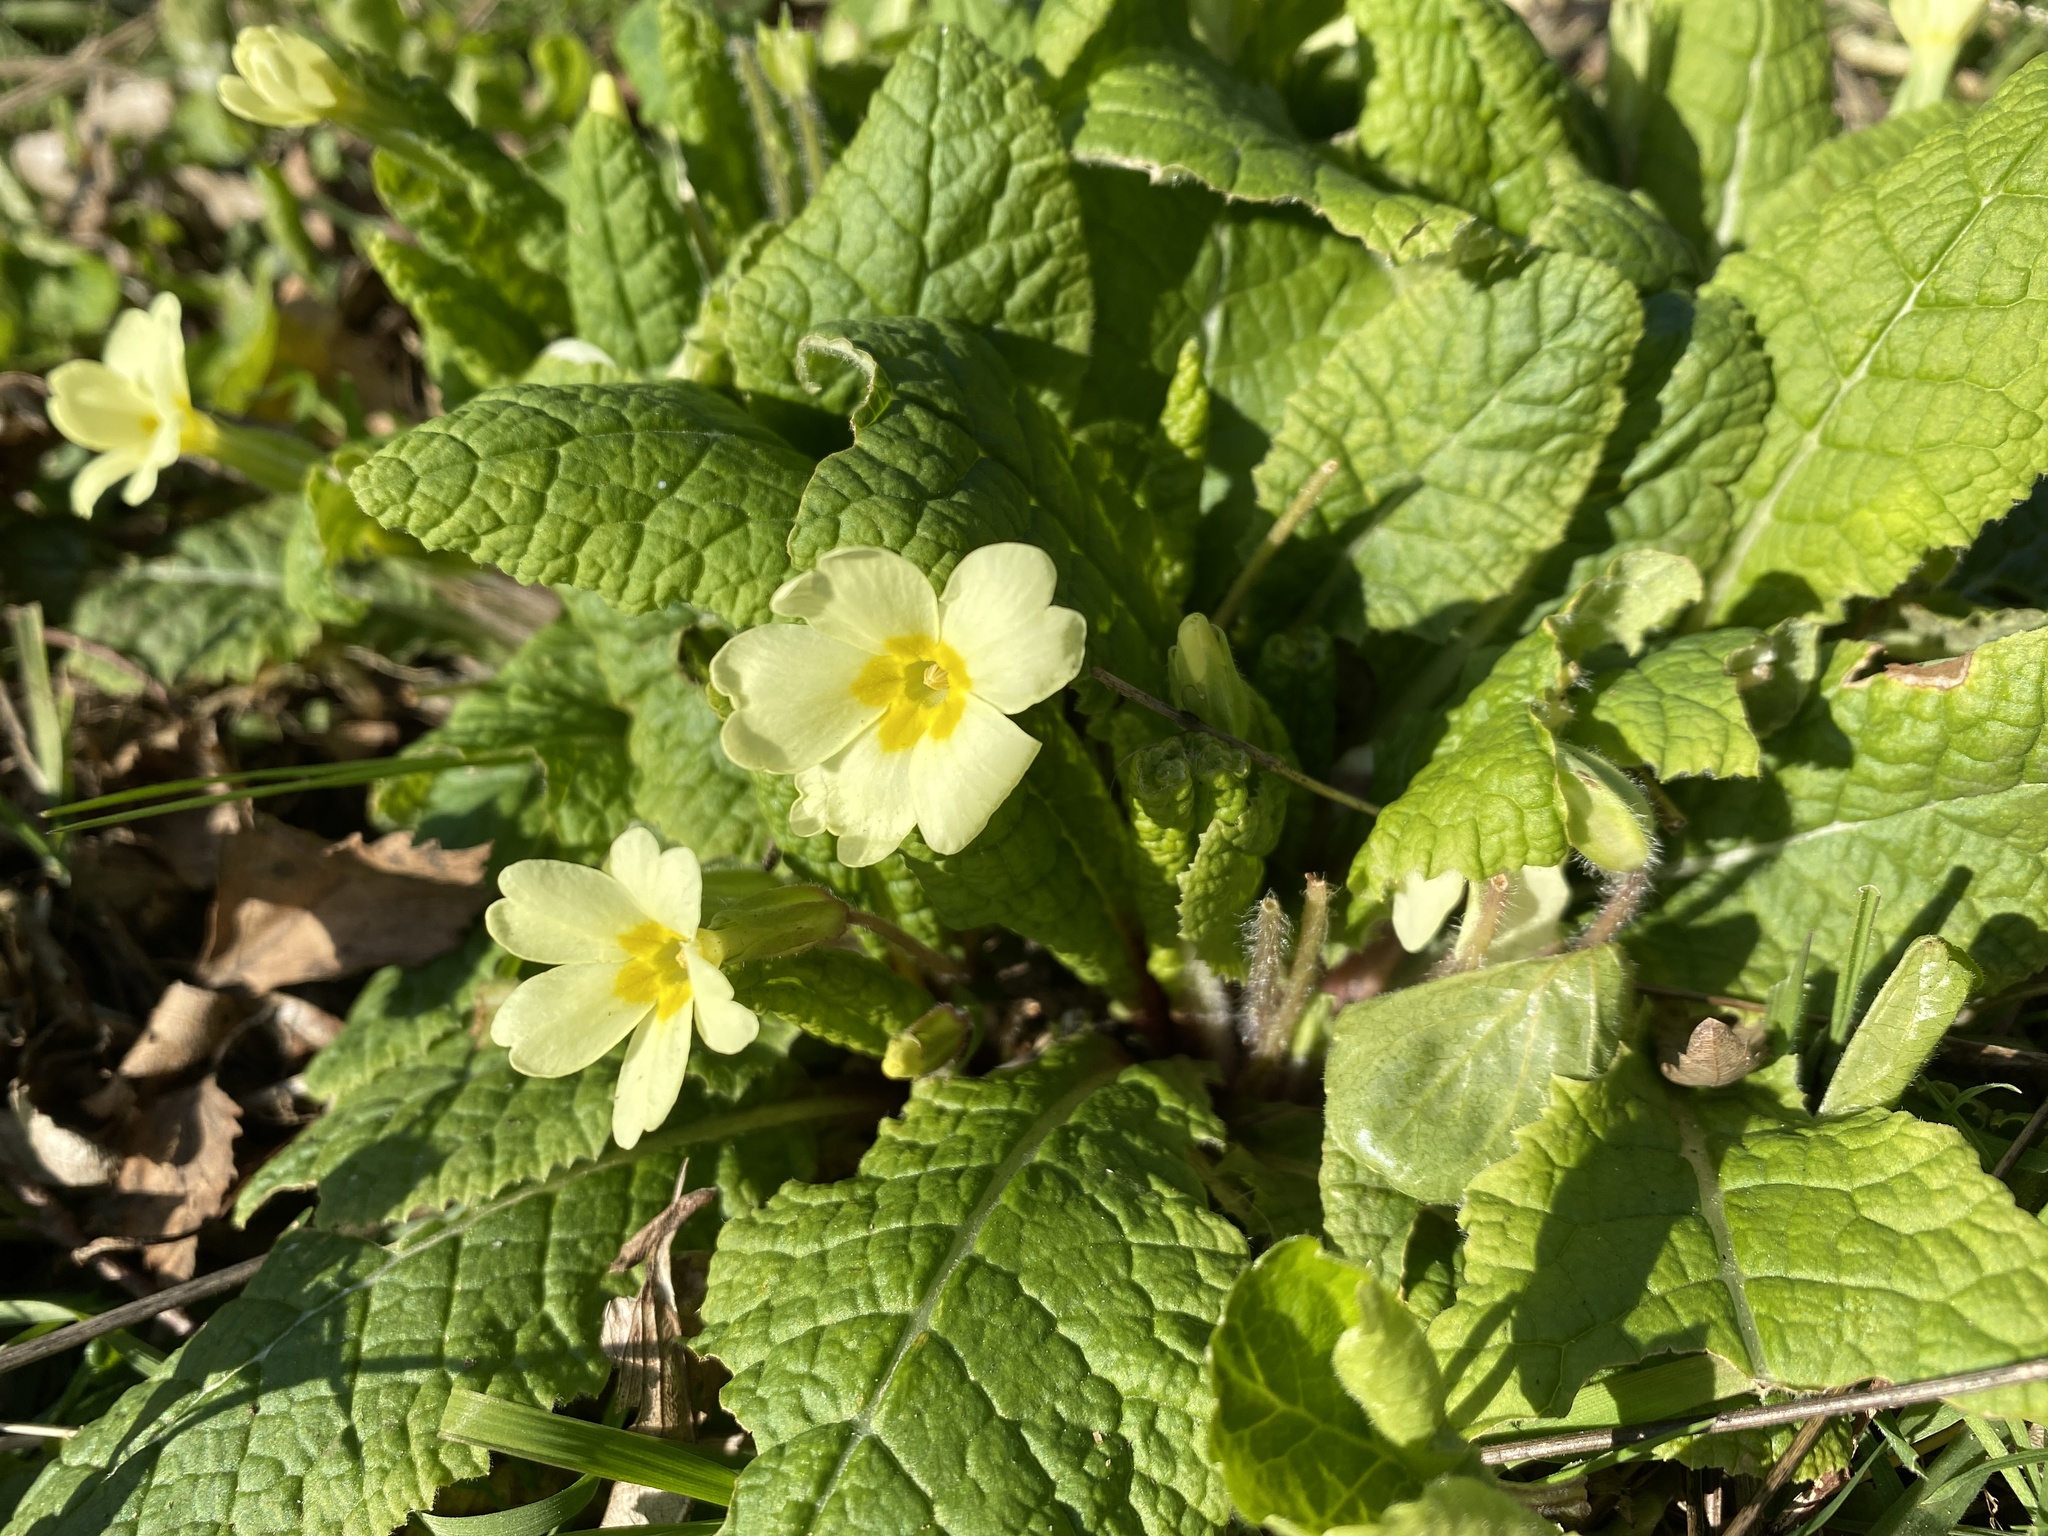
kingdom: Plantae
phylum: Tracheophyta
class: Magnoliopsida
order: Ericales
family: Primulaceae
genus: Primula
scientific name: Primula vulgaris
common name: Primrose
